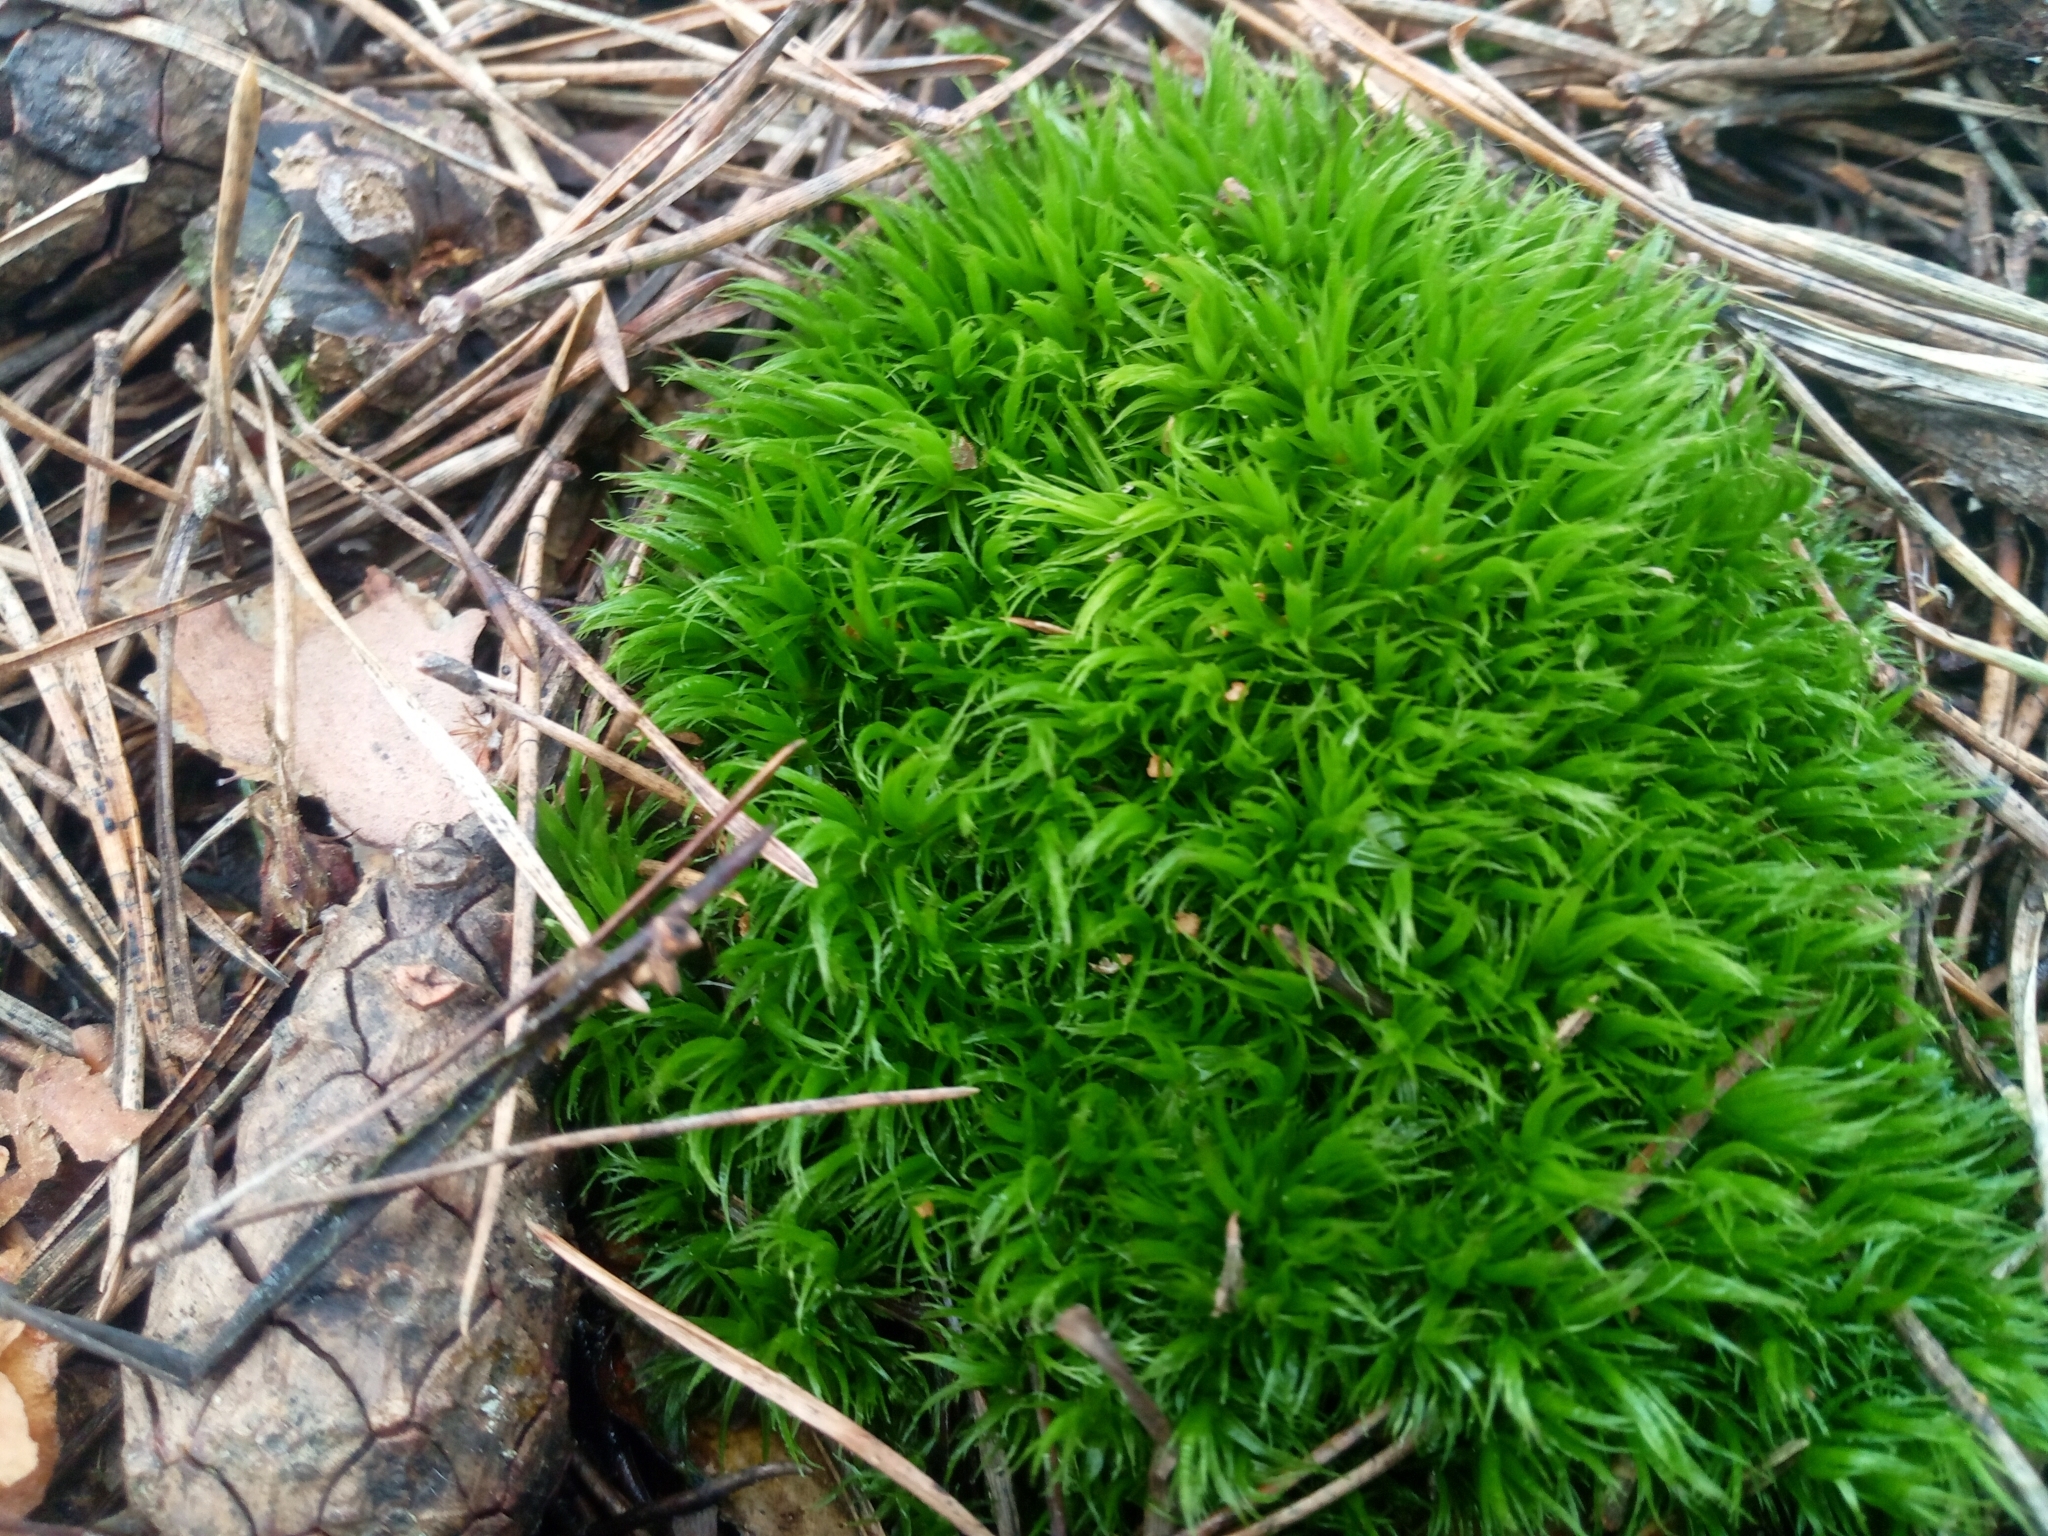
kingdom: Plantae
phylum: Bryophyta
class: Bryopsida
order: Dicranales
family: Dicranaceae
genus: Dicranum
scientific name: Dicranum scoparium
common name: Broom fork-moss
